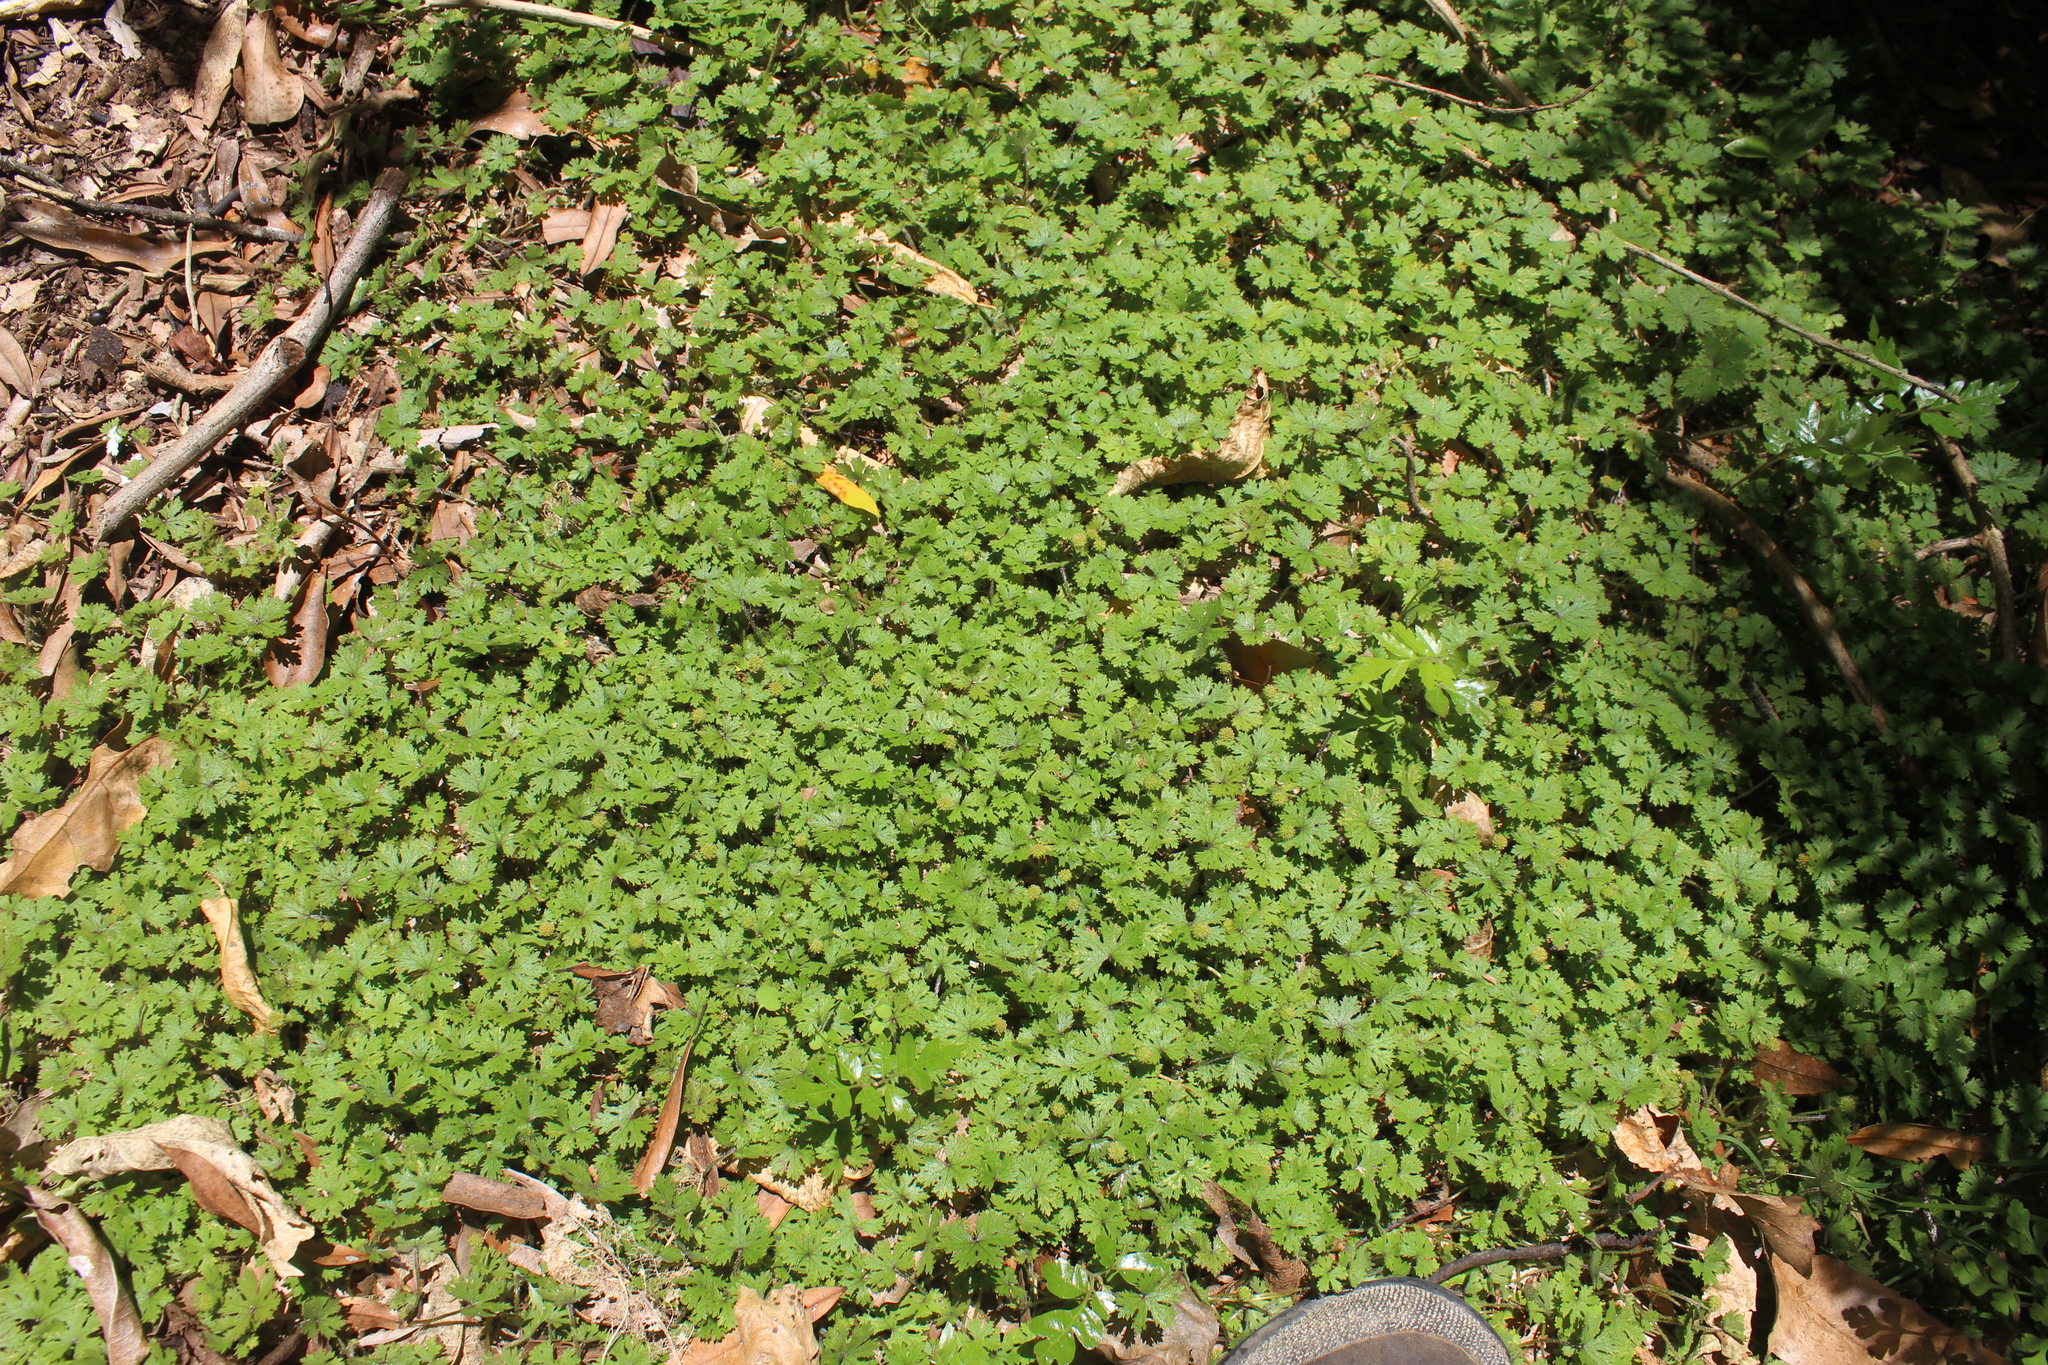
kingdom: Plantae
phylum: Tracheophyta
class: Magnoliopsida
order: Apiales
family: Araliaceae
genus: Hydrocotyle
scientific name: Hydrocotyle dissecta
